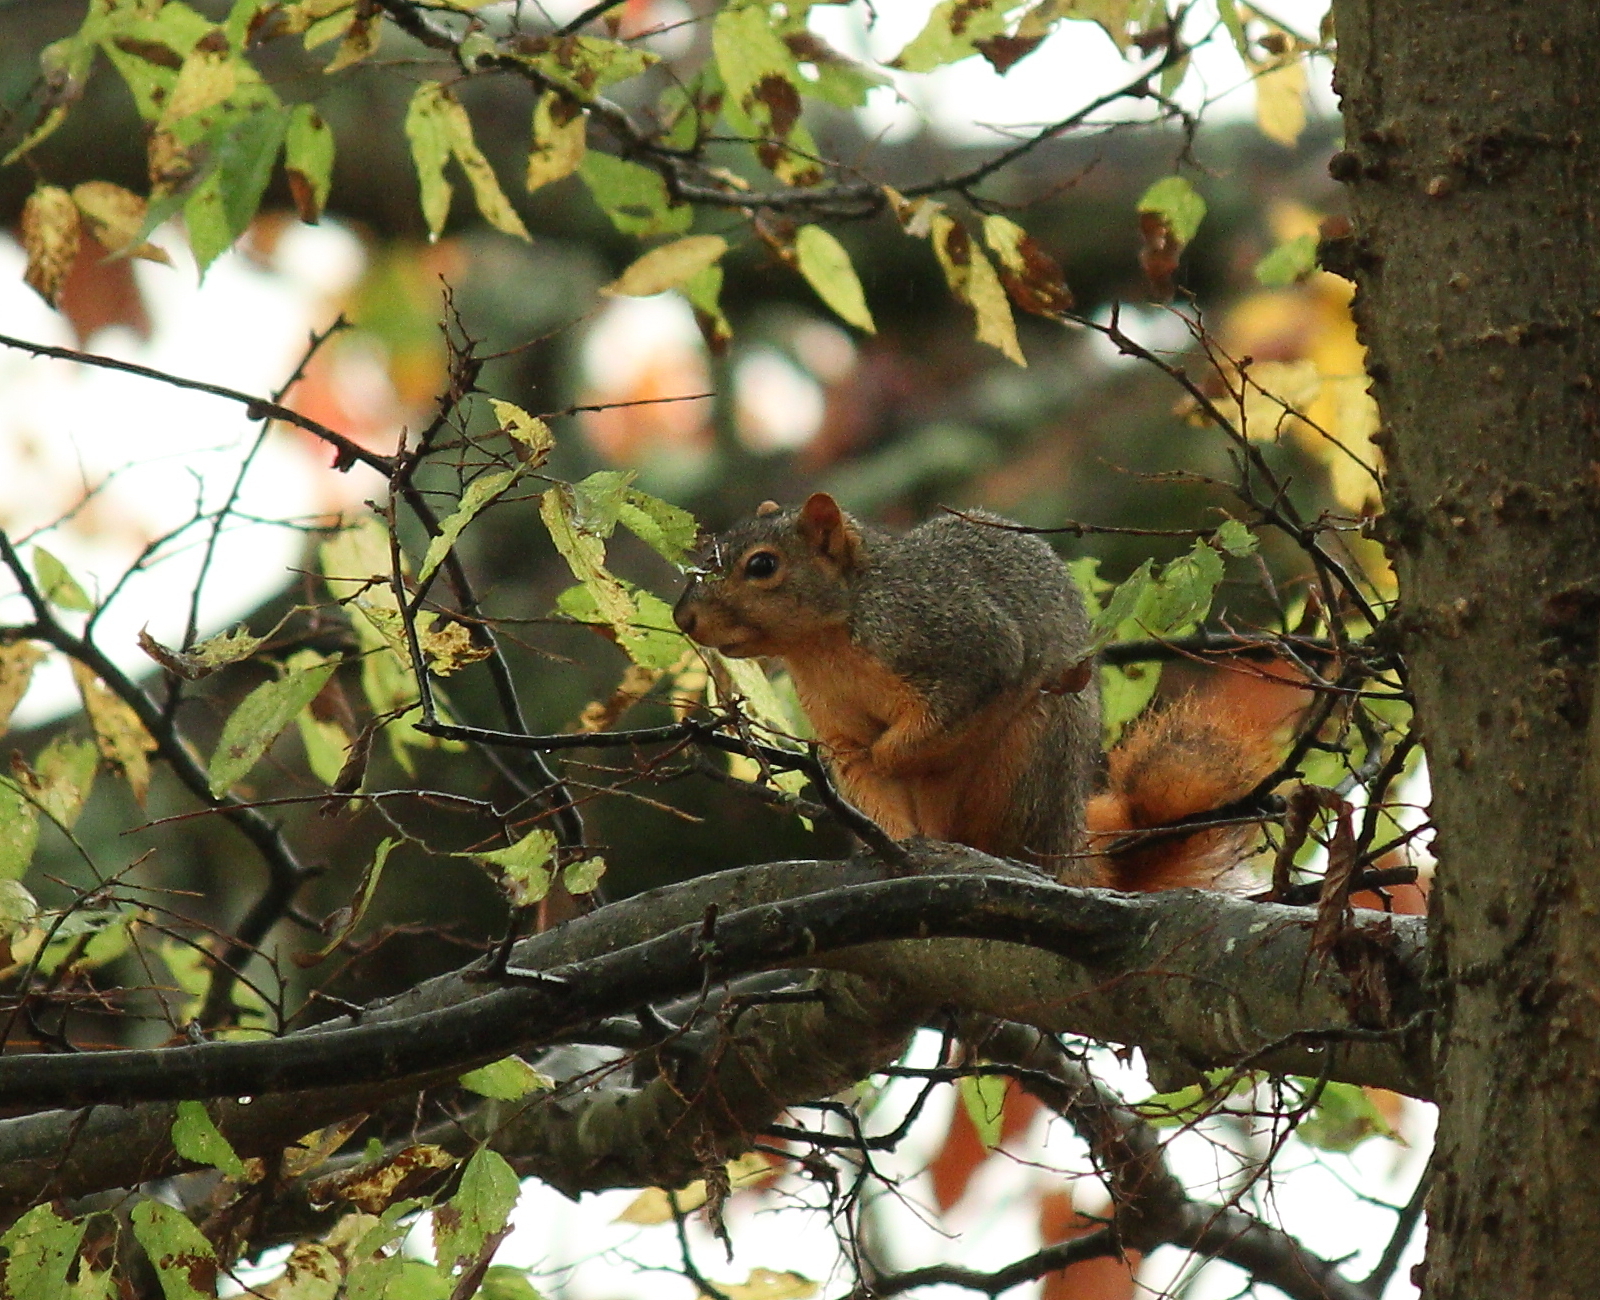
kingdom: Animalia
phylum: Chordata
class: Mammalia
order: Rodentia
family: Sciuridae
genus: Sciurus
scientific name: Sciurus niger
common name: Fox squirrel
